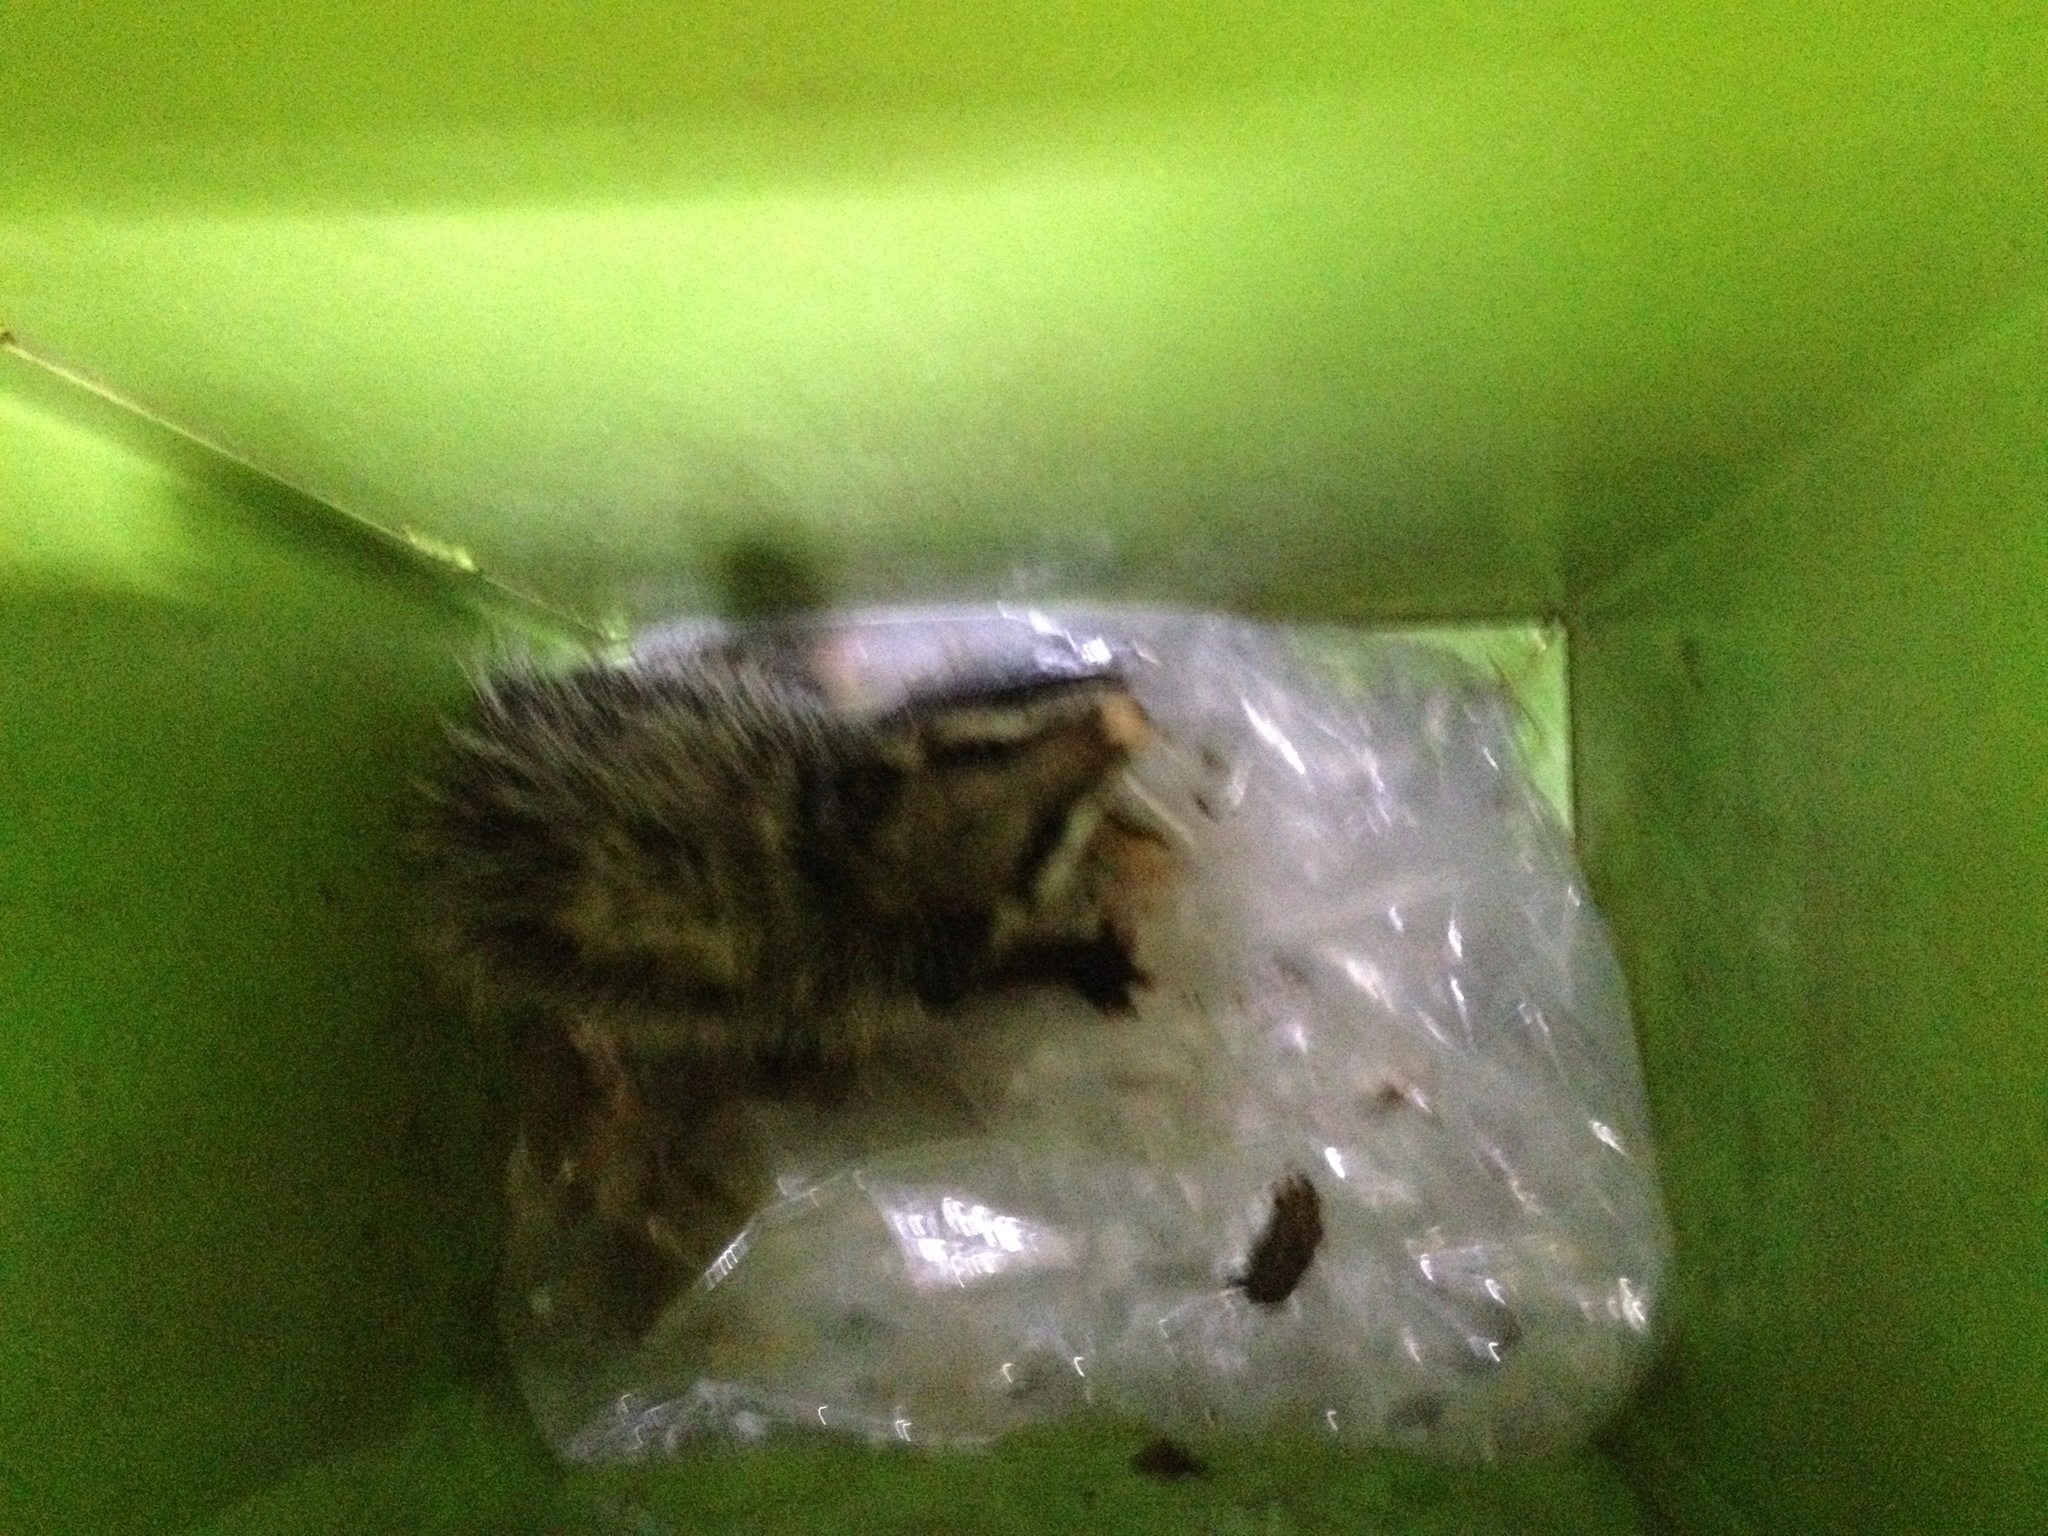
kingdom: Animalia
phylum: Chordata
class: Mammalia
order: Didelphimorphia
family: Didelphidae
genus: Didelphis
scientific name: Didelphis virginiana
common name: Virginia opossum
